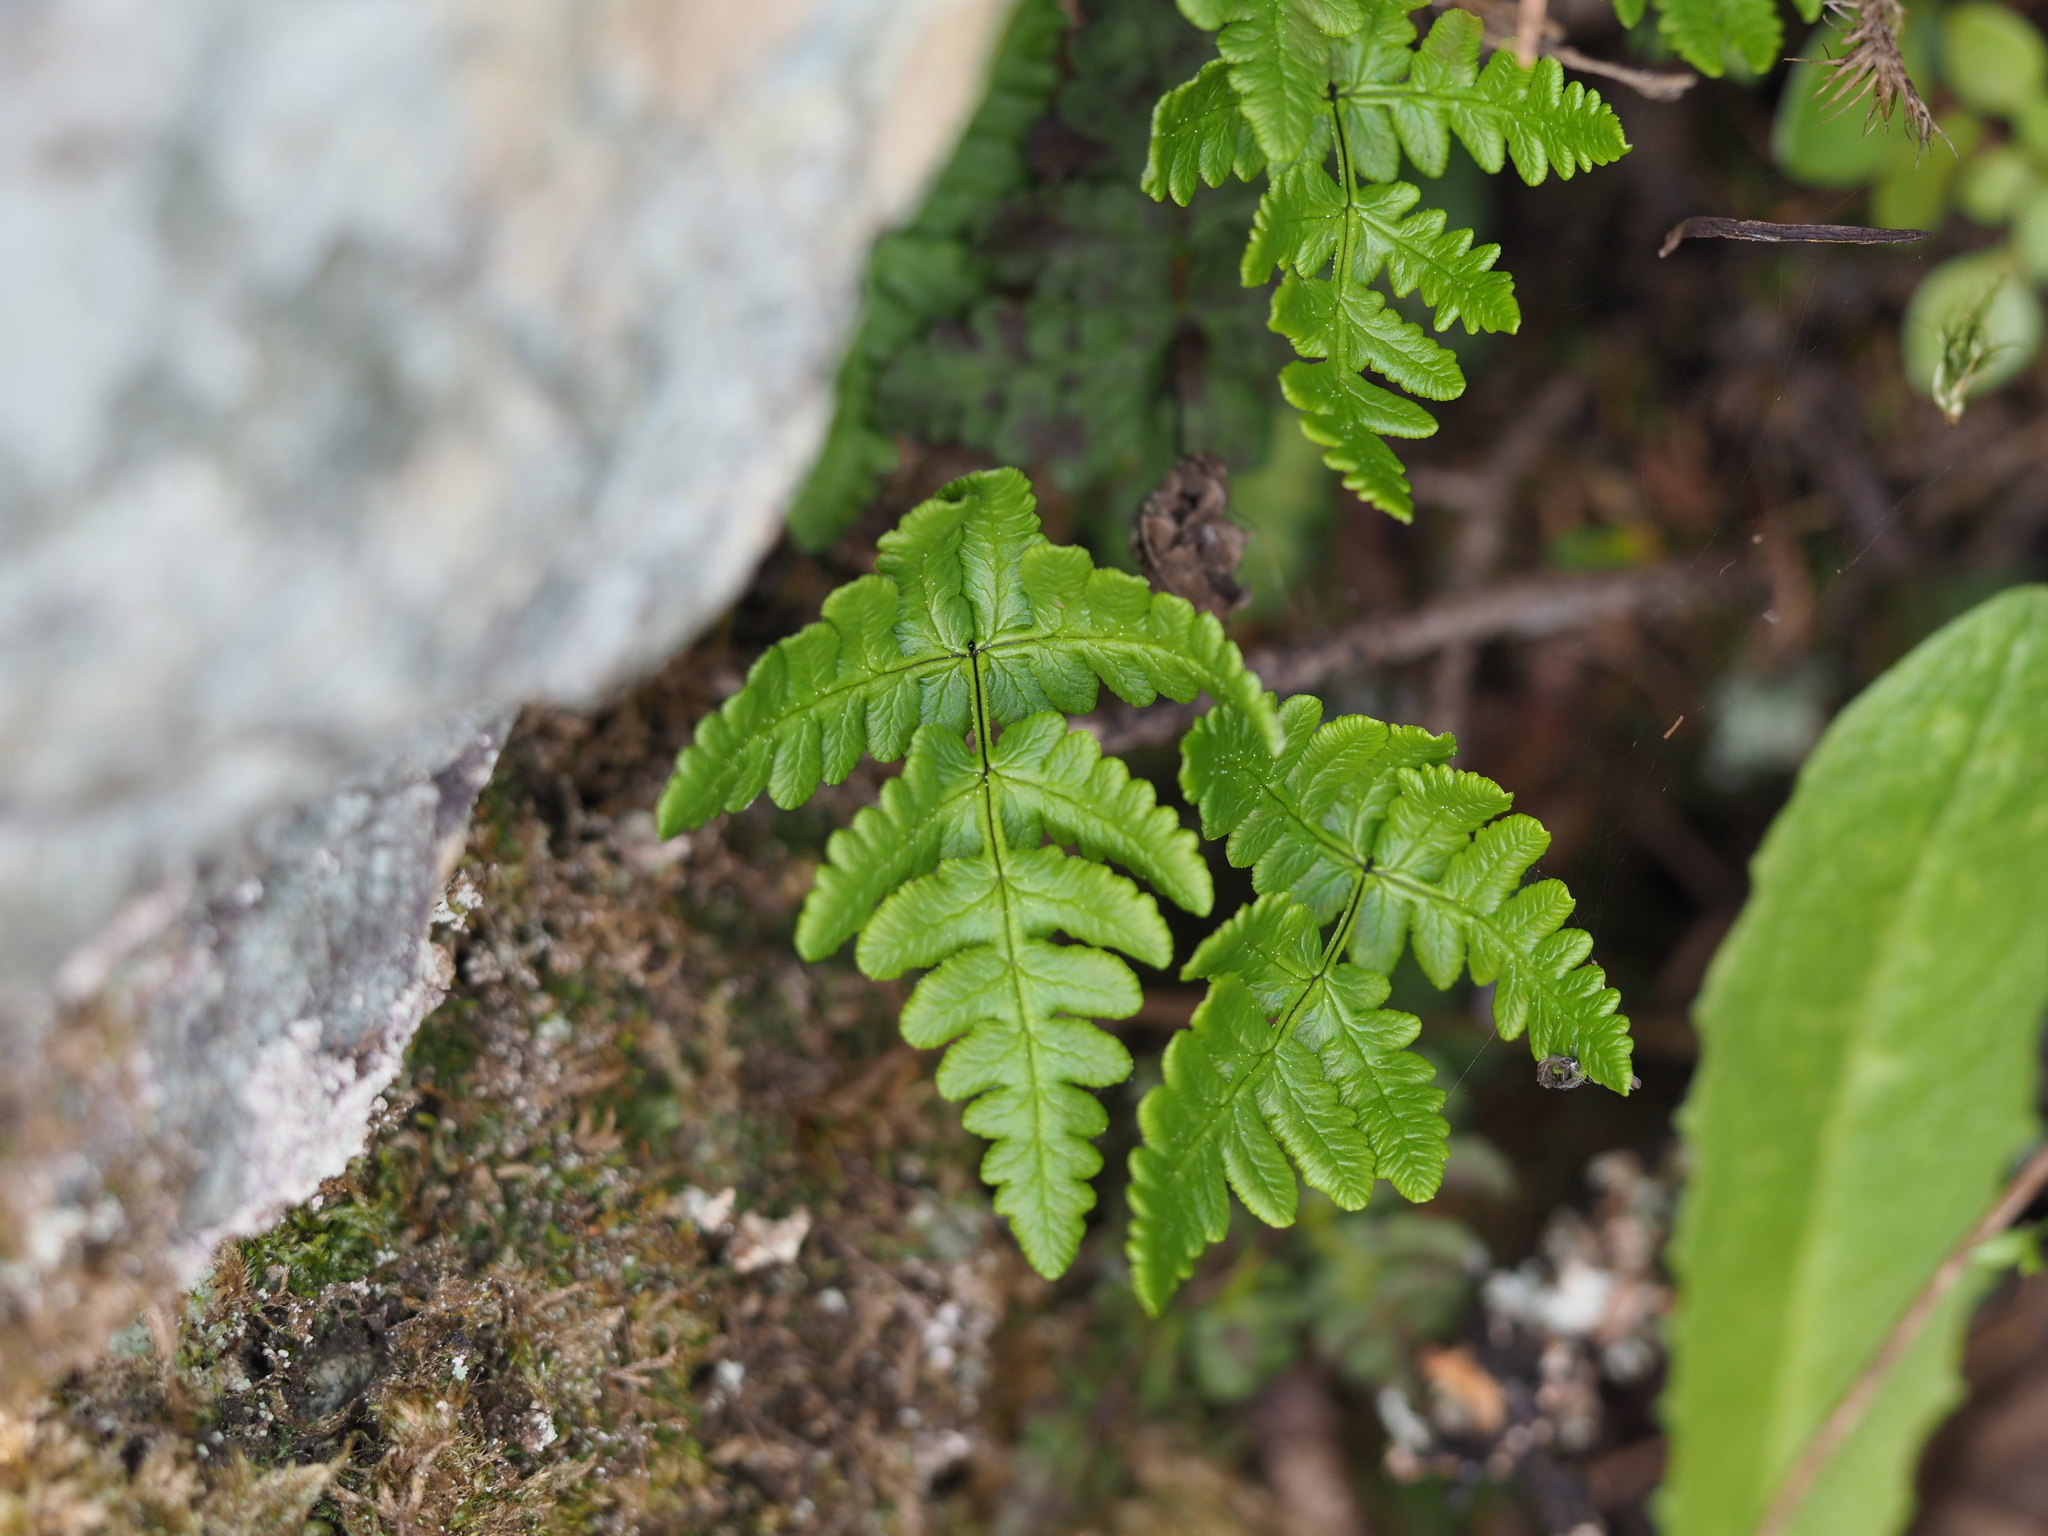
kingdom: Plantae
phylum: Tracheophyta
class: Polypodiopsida
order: Polypodiales
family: Pteridaceae
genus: Pentagramma
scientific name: Pentagramma triangularis
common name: Gold fern
